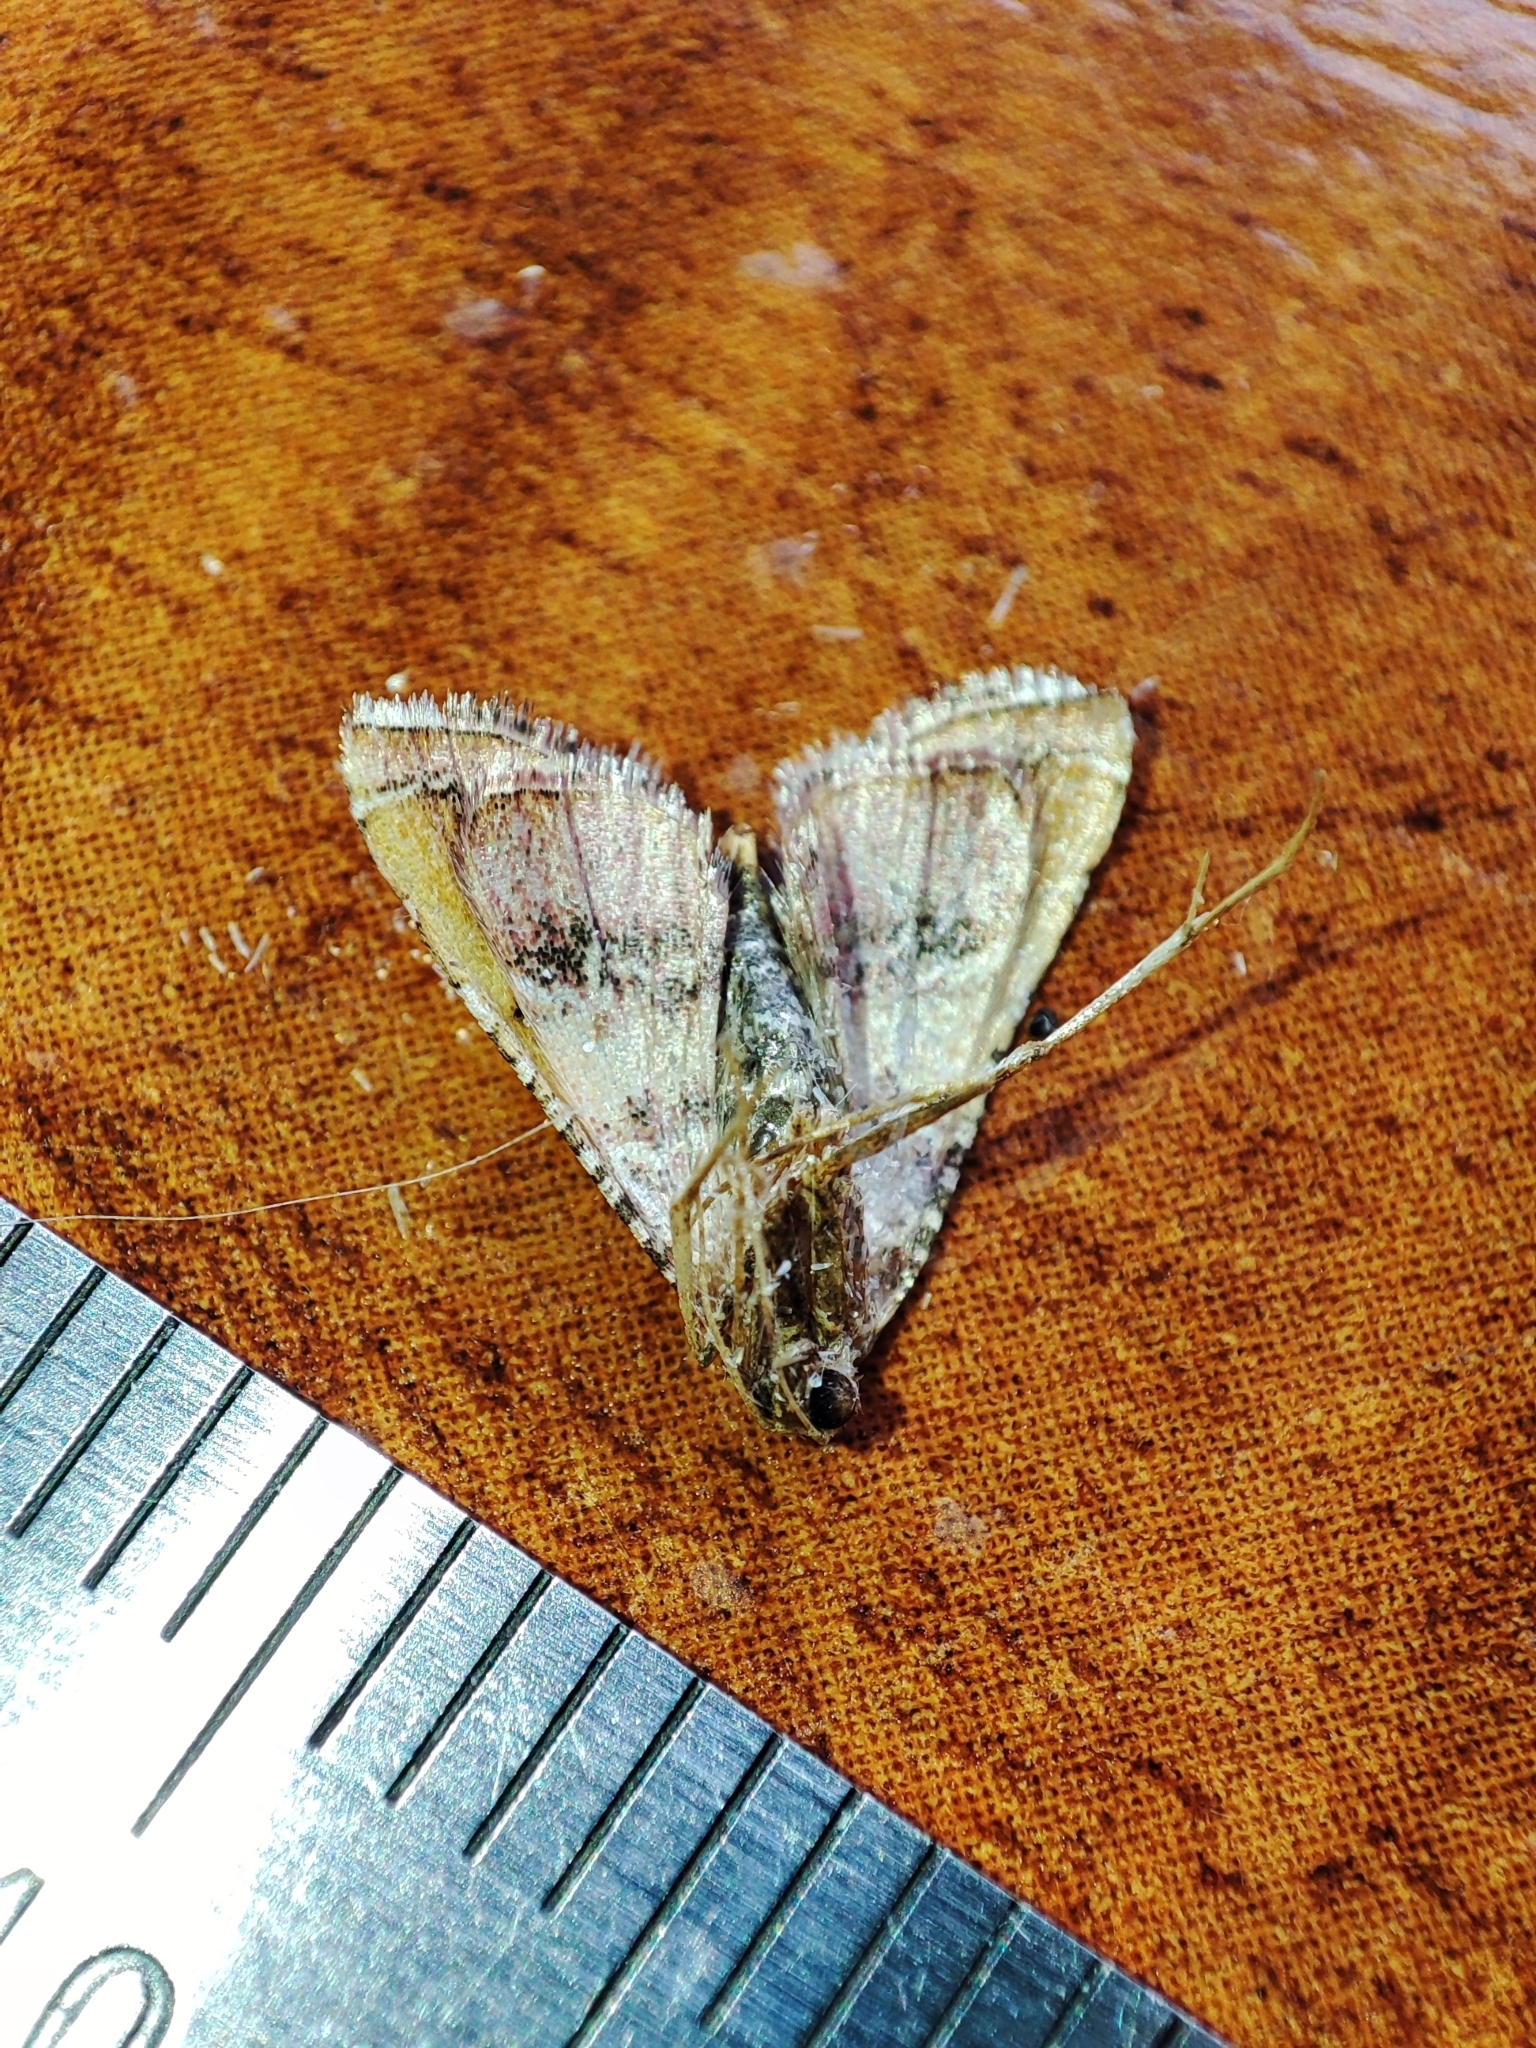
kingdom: Animalia
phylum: Arthropoda
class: Insecta
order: Lepidoptera
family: Pyralidae
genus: Endotricha
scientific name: Endotricha flammealis
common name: Rosy tabby
